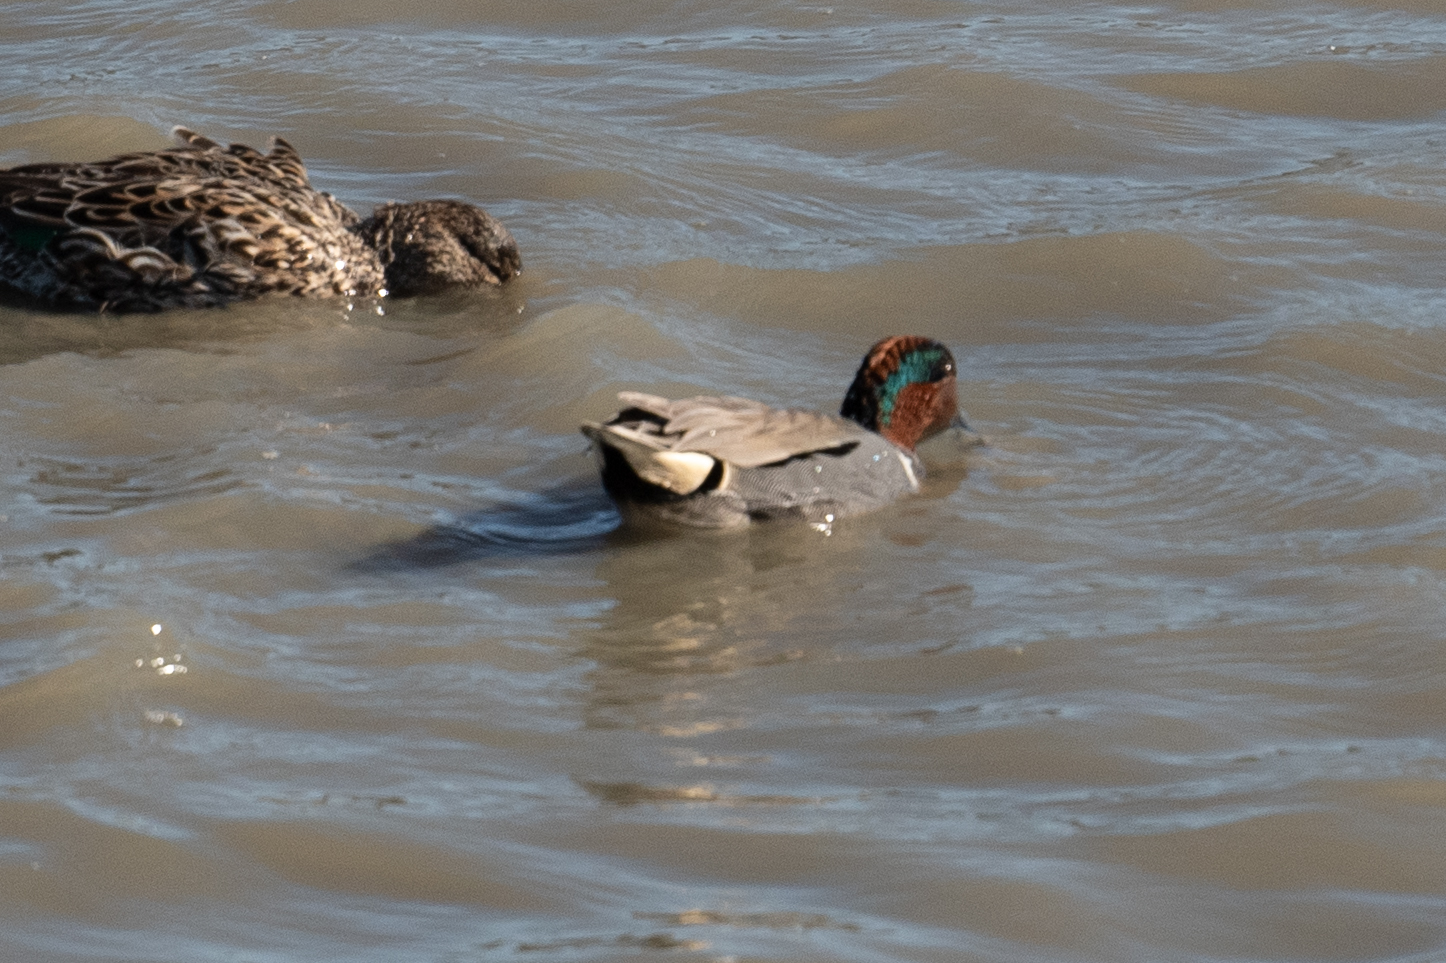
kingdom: Animalia
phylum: Chordata
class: Aves
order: Anseriformes
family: Anatidae
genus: Anas
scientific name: Anas crecca
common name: Eurasian teal
